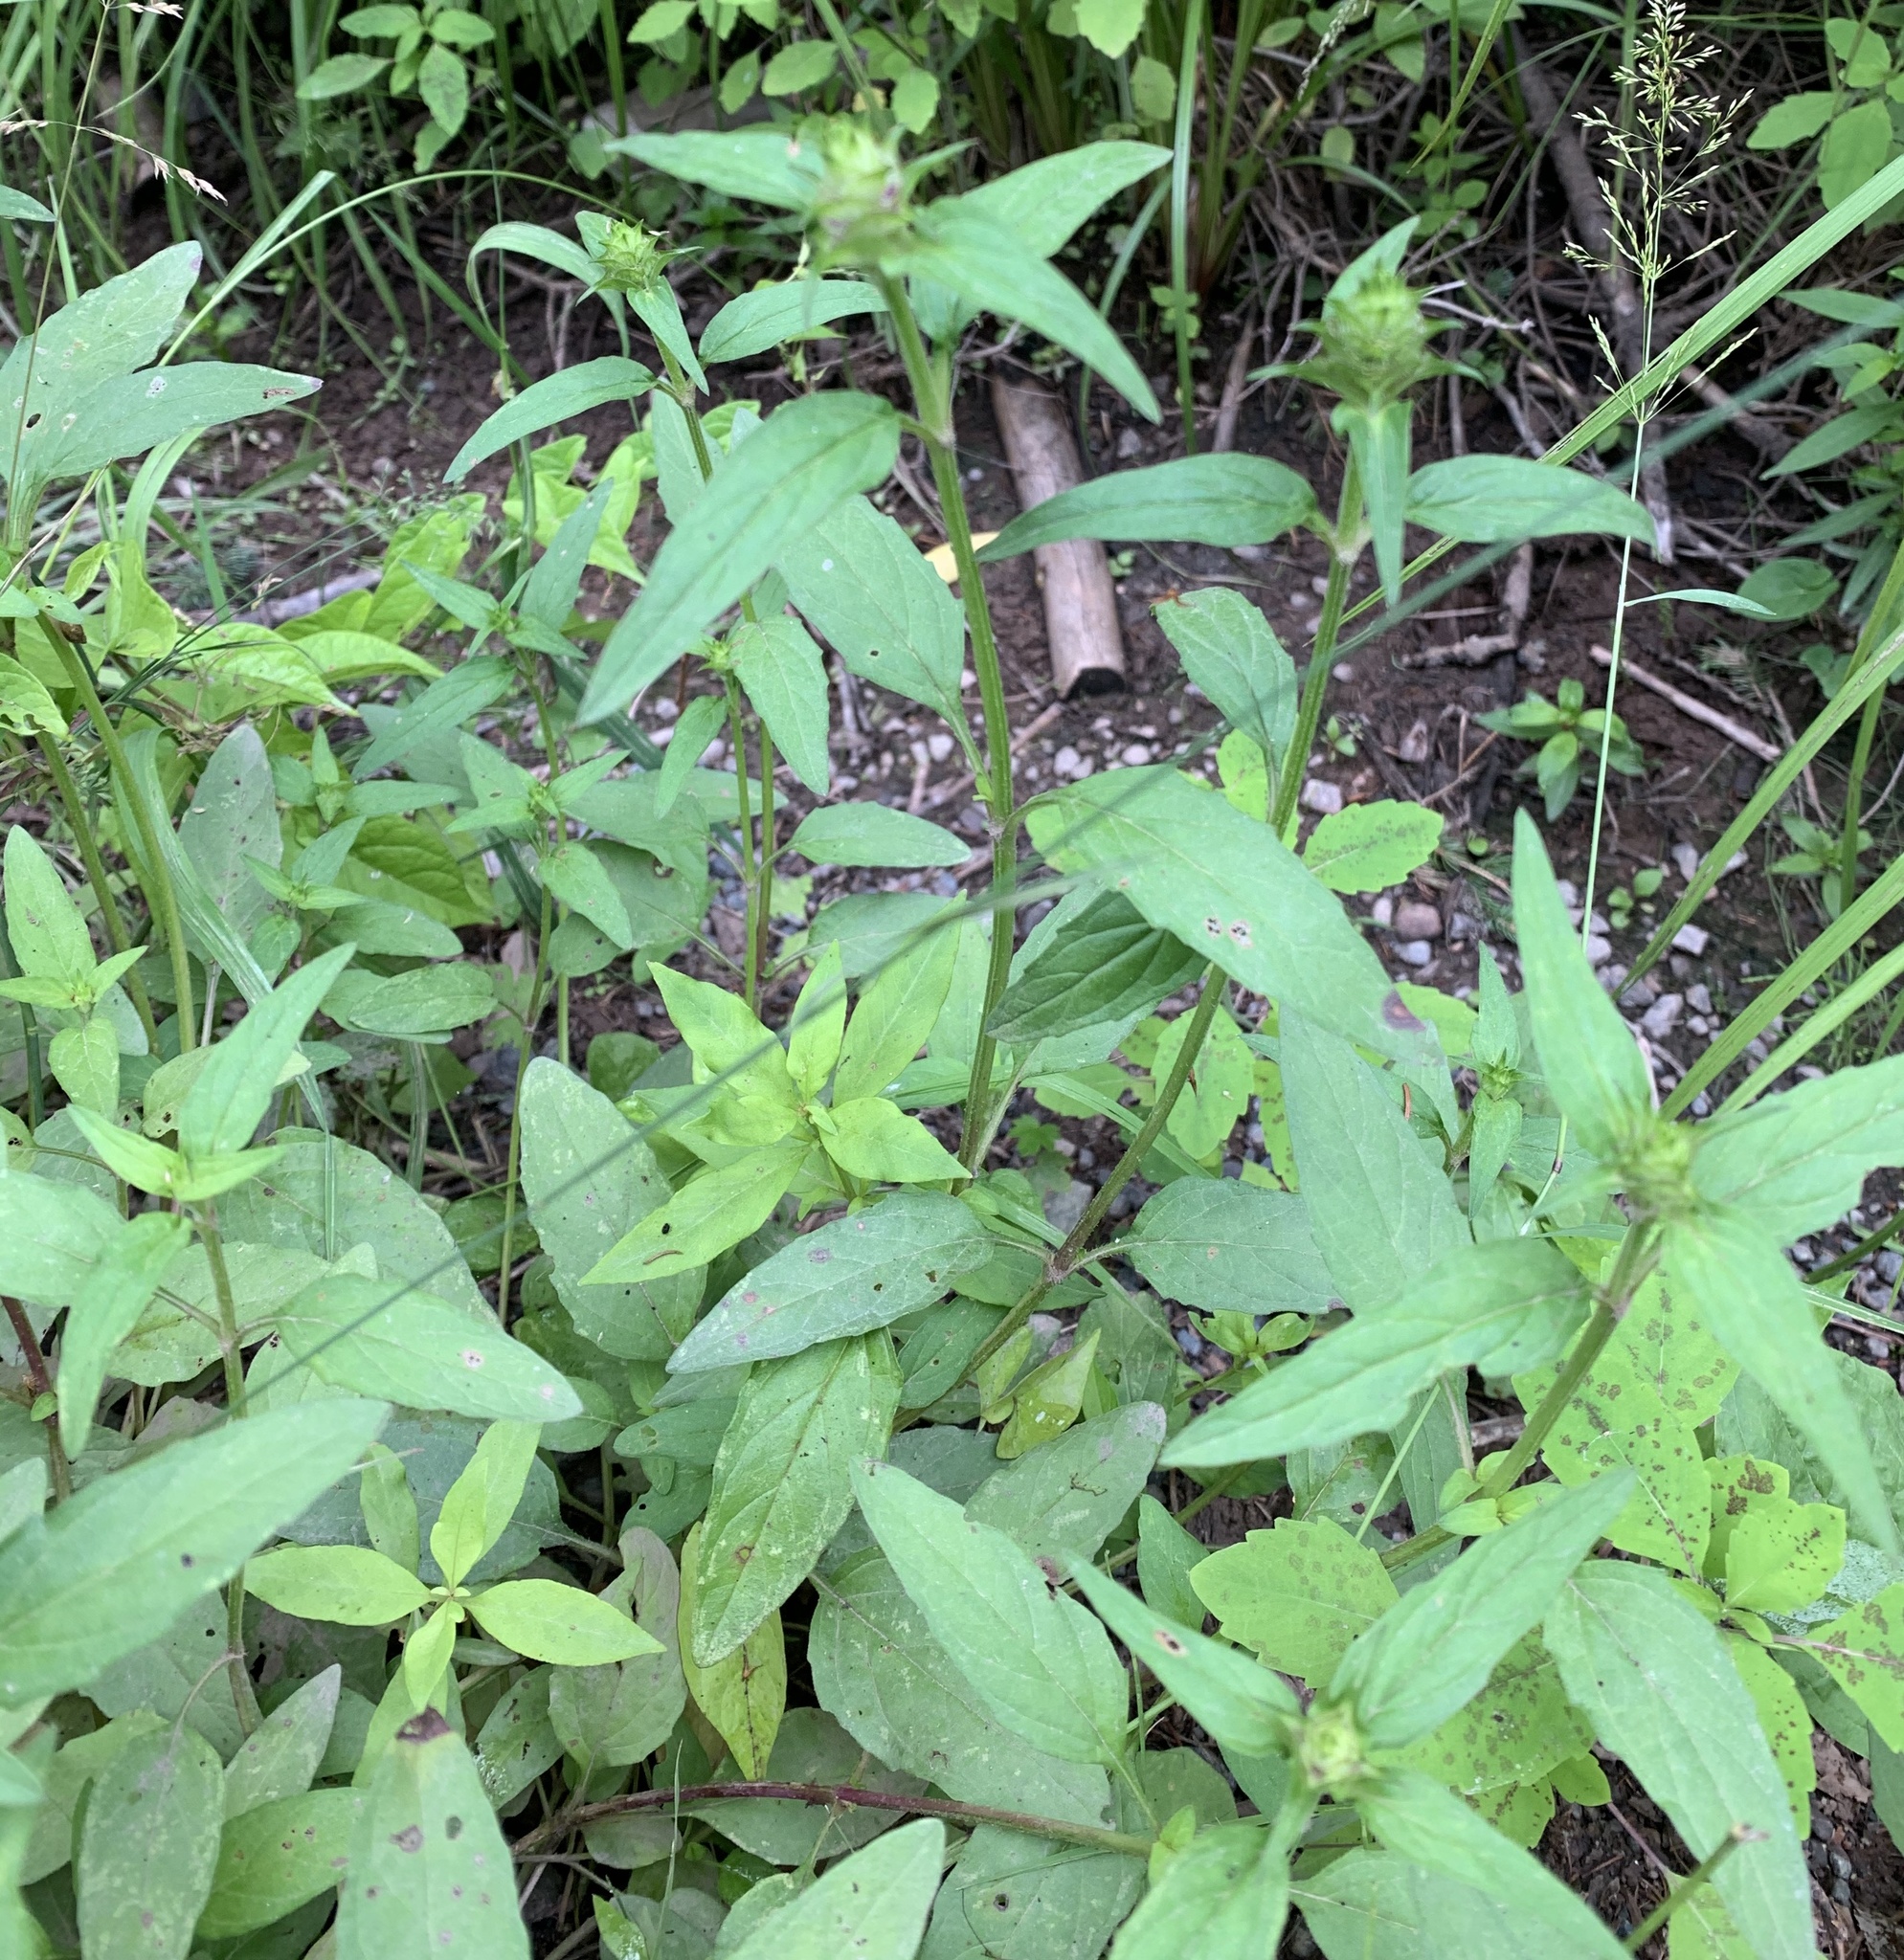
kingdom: Plantae
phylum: Tracheophyta
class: Magnoliopsida
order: Lamiales
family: Lamiaceae
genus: Prunella
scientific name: Prunella vulgaris
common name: Heal-all
